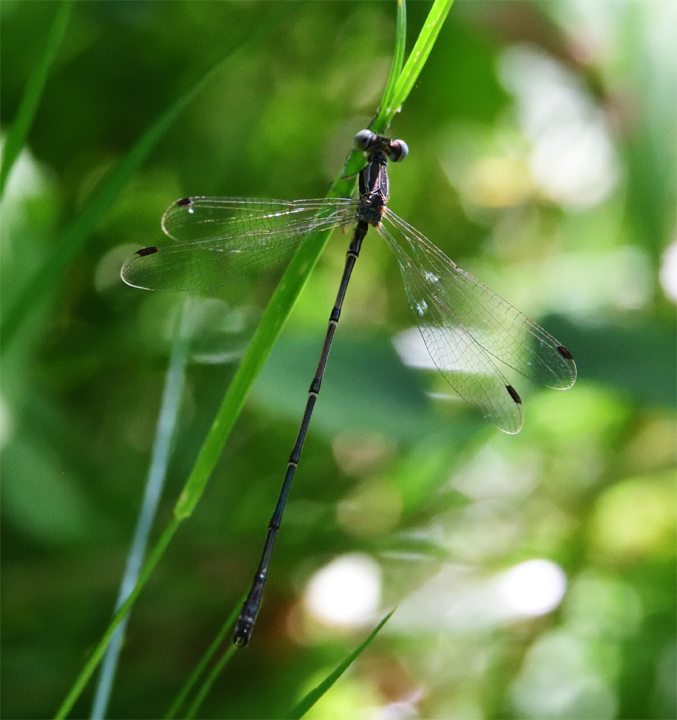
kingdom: Animalia
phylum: Arthropoda
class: Insecta
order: Odonata
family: Lestidae
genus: Lestes
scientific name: Lestes rectangularis
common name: Slender spreadwing
